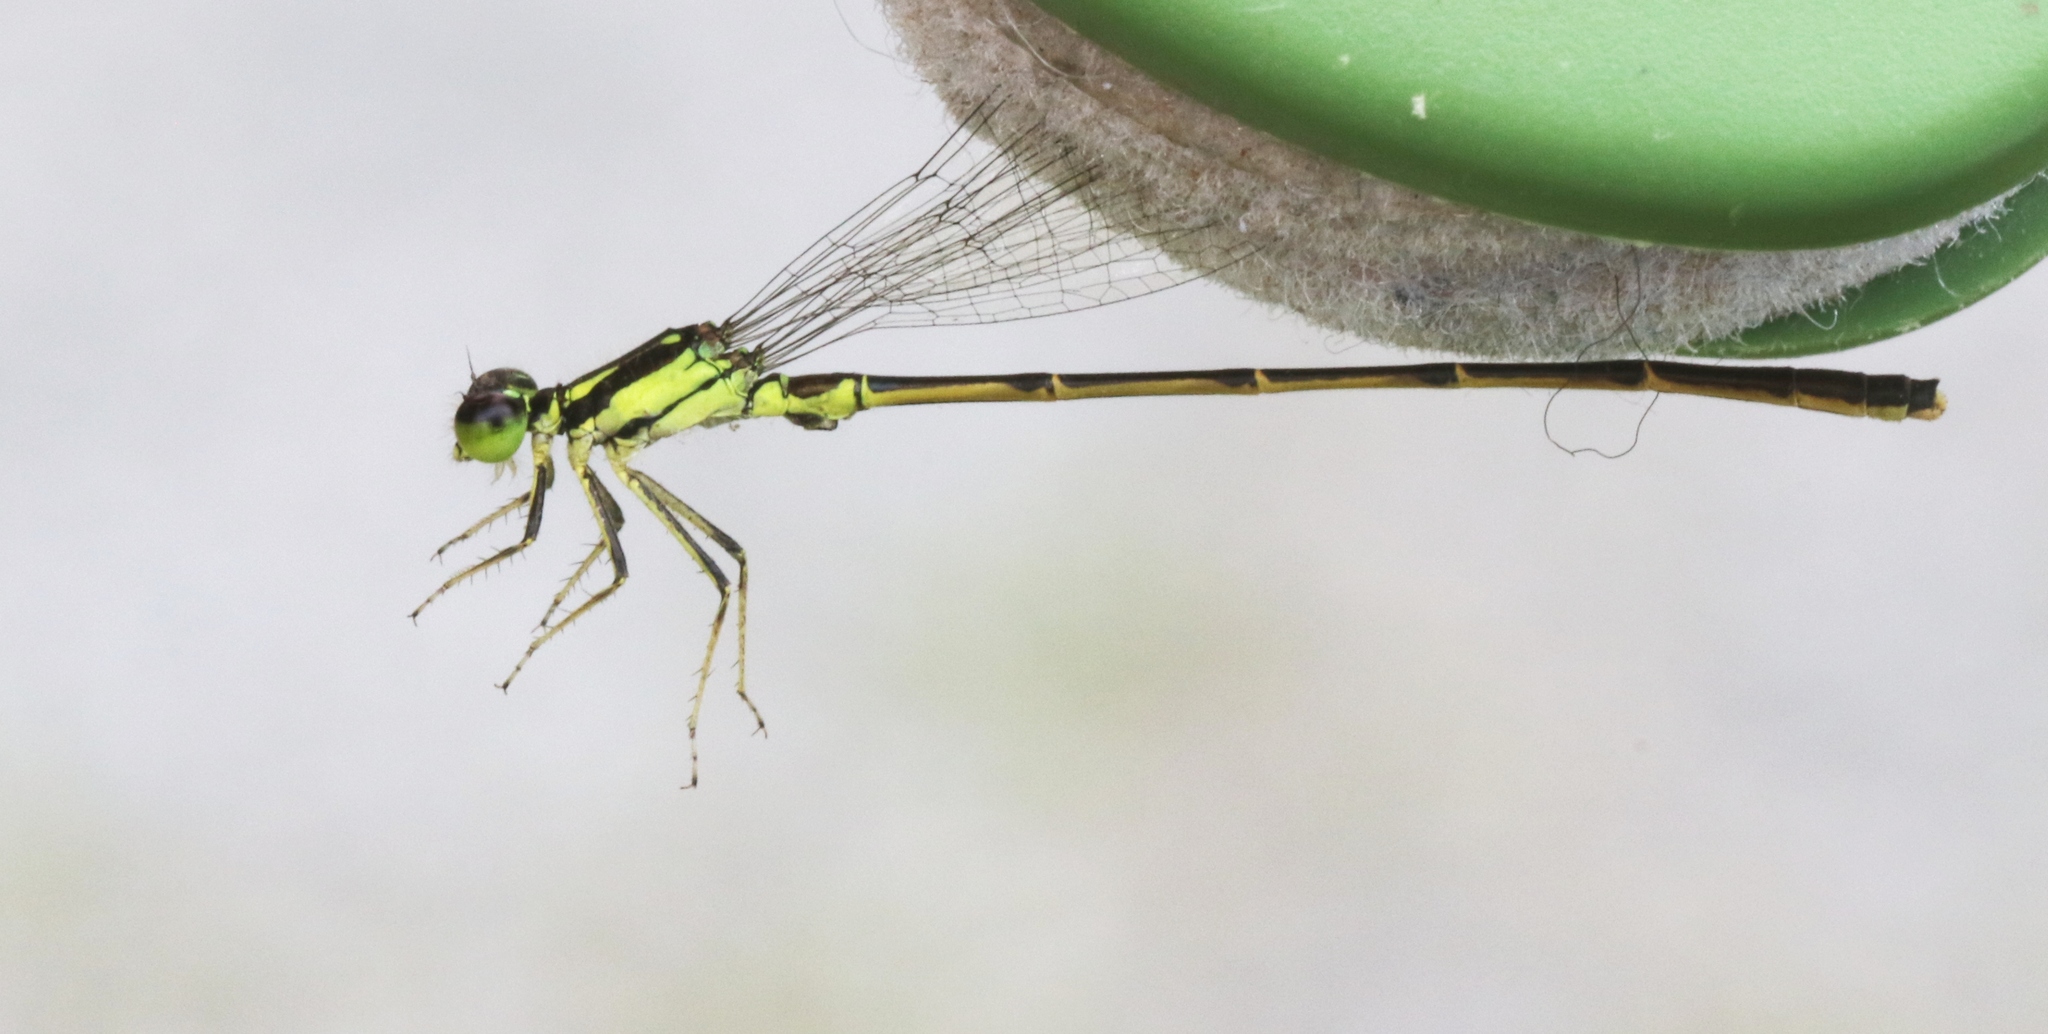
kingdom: Animalia
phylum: Arthropoda
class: Insecta
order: Odonata
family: Coenagrionidae
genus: Ischnura
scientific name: Ischnura posita
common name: Fragile forktail
